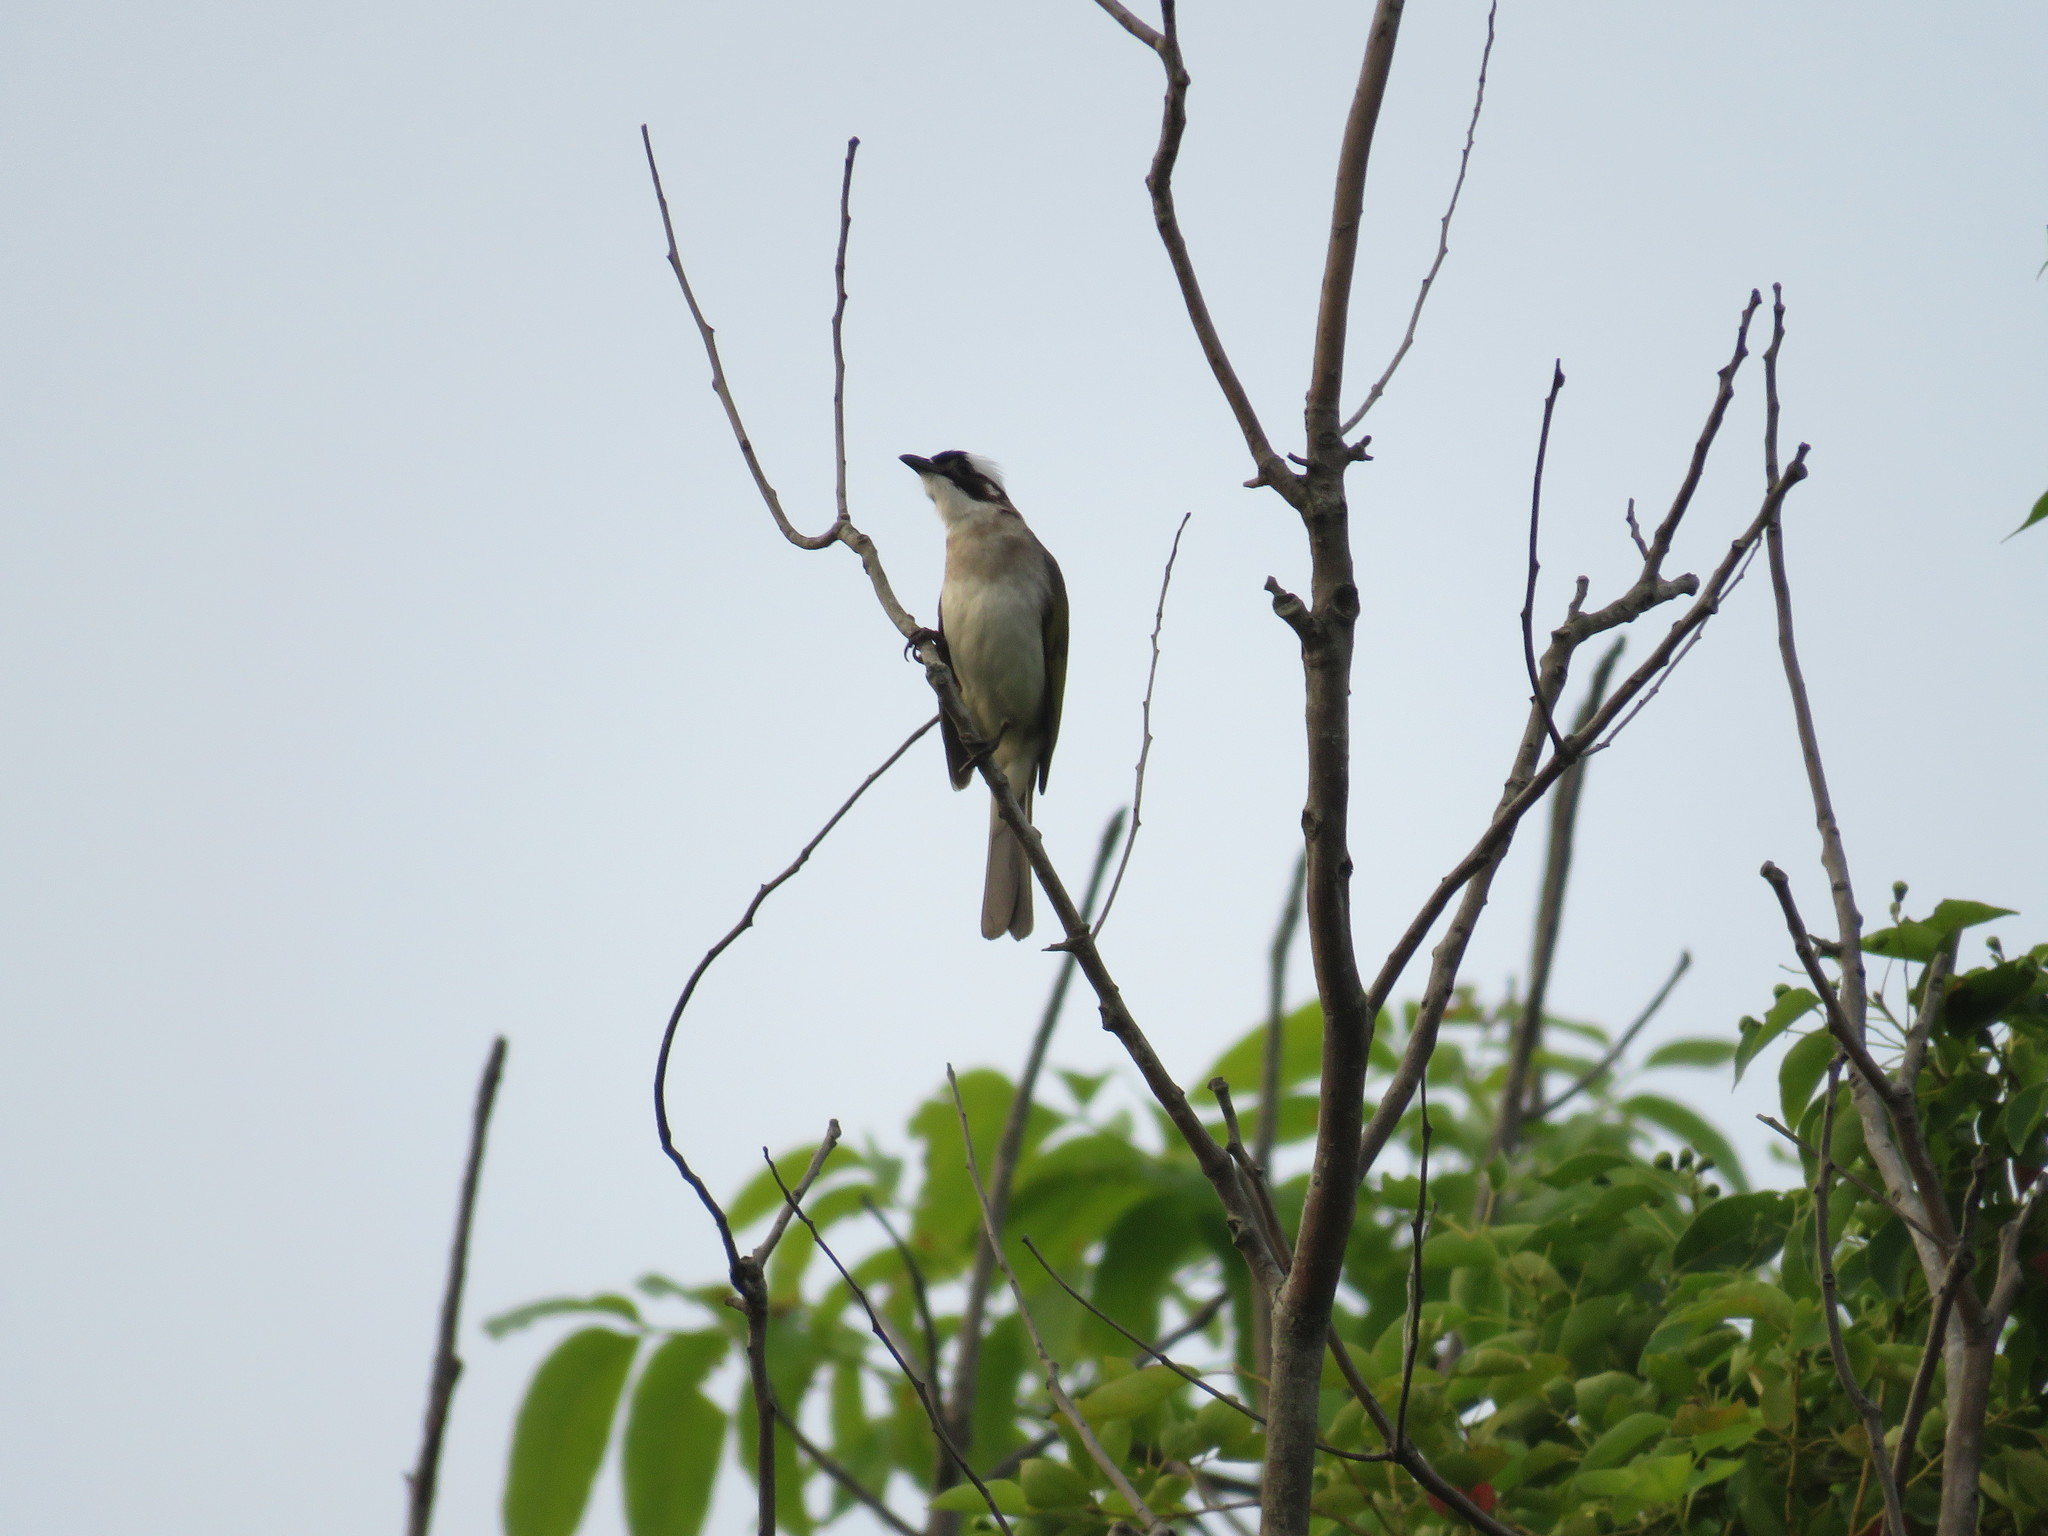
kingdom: Animalia
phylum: Chordata
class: Aves
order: Passeriformes
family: Pycnonotidae
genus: Pycnonotus
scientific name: Pycnonotus sinensis
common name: Light-vented bulbul
